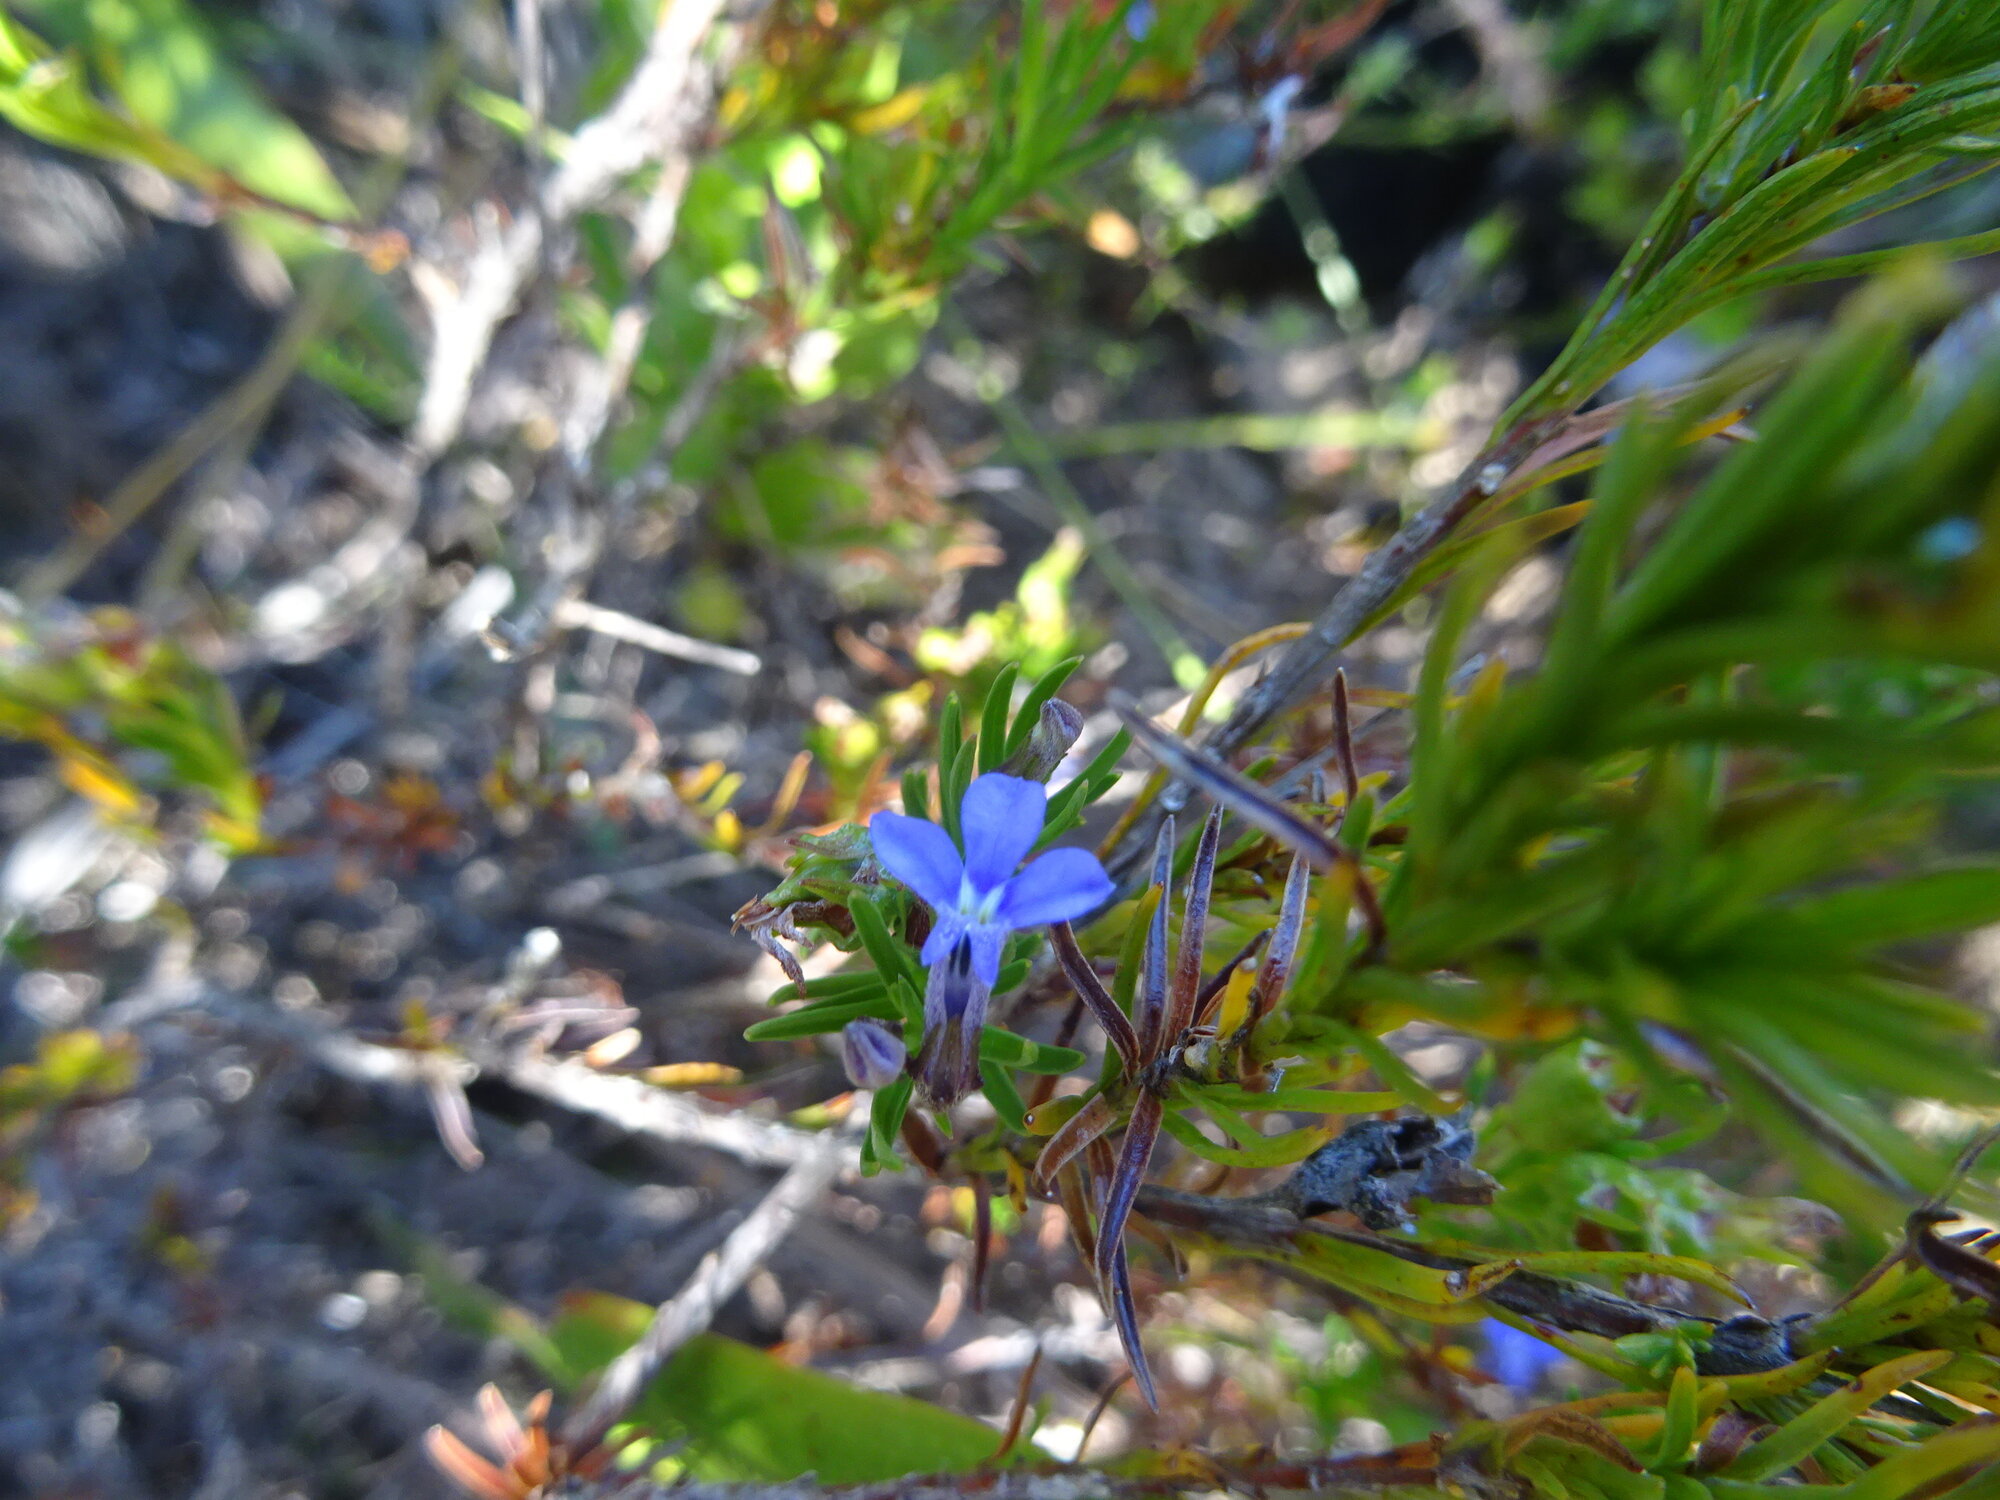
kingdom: Plantae
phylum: Tracheophyta
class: Magnoliopsida
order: Asterales
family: Campanulaceae
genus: Lobelia
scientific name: Lobelia pinifolia
